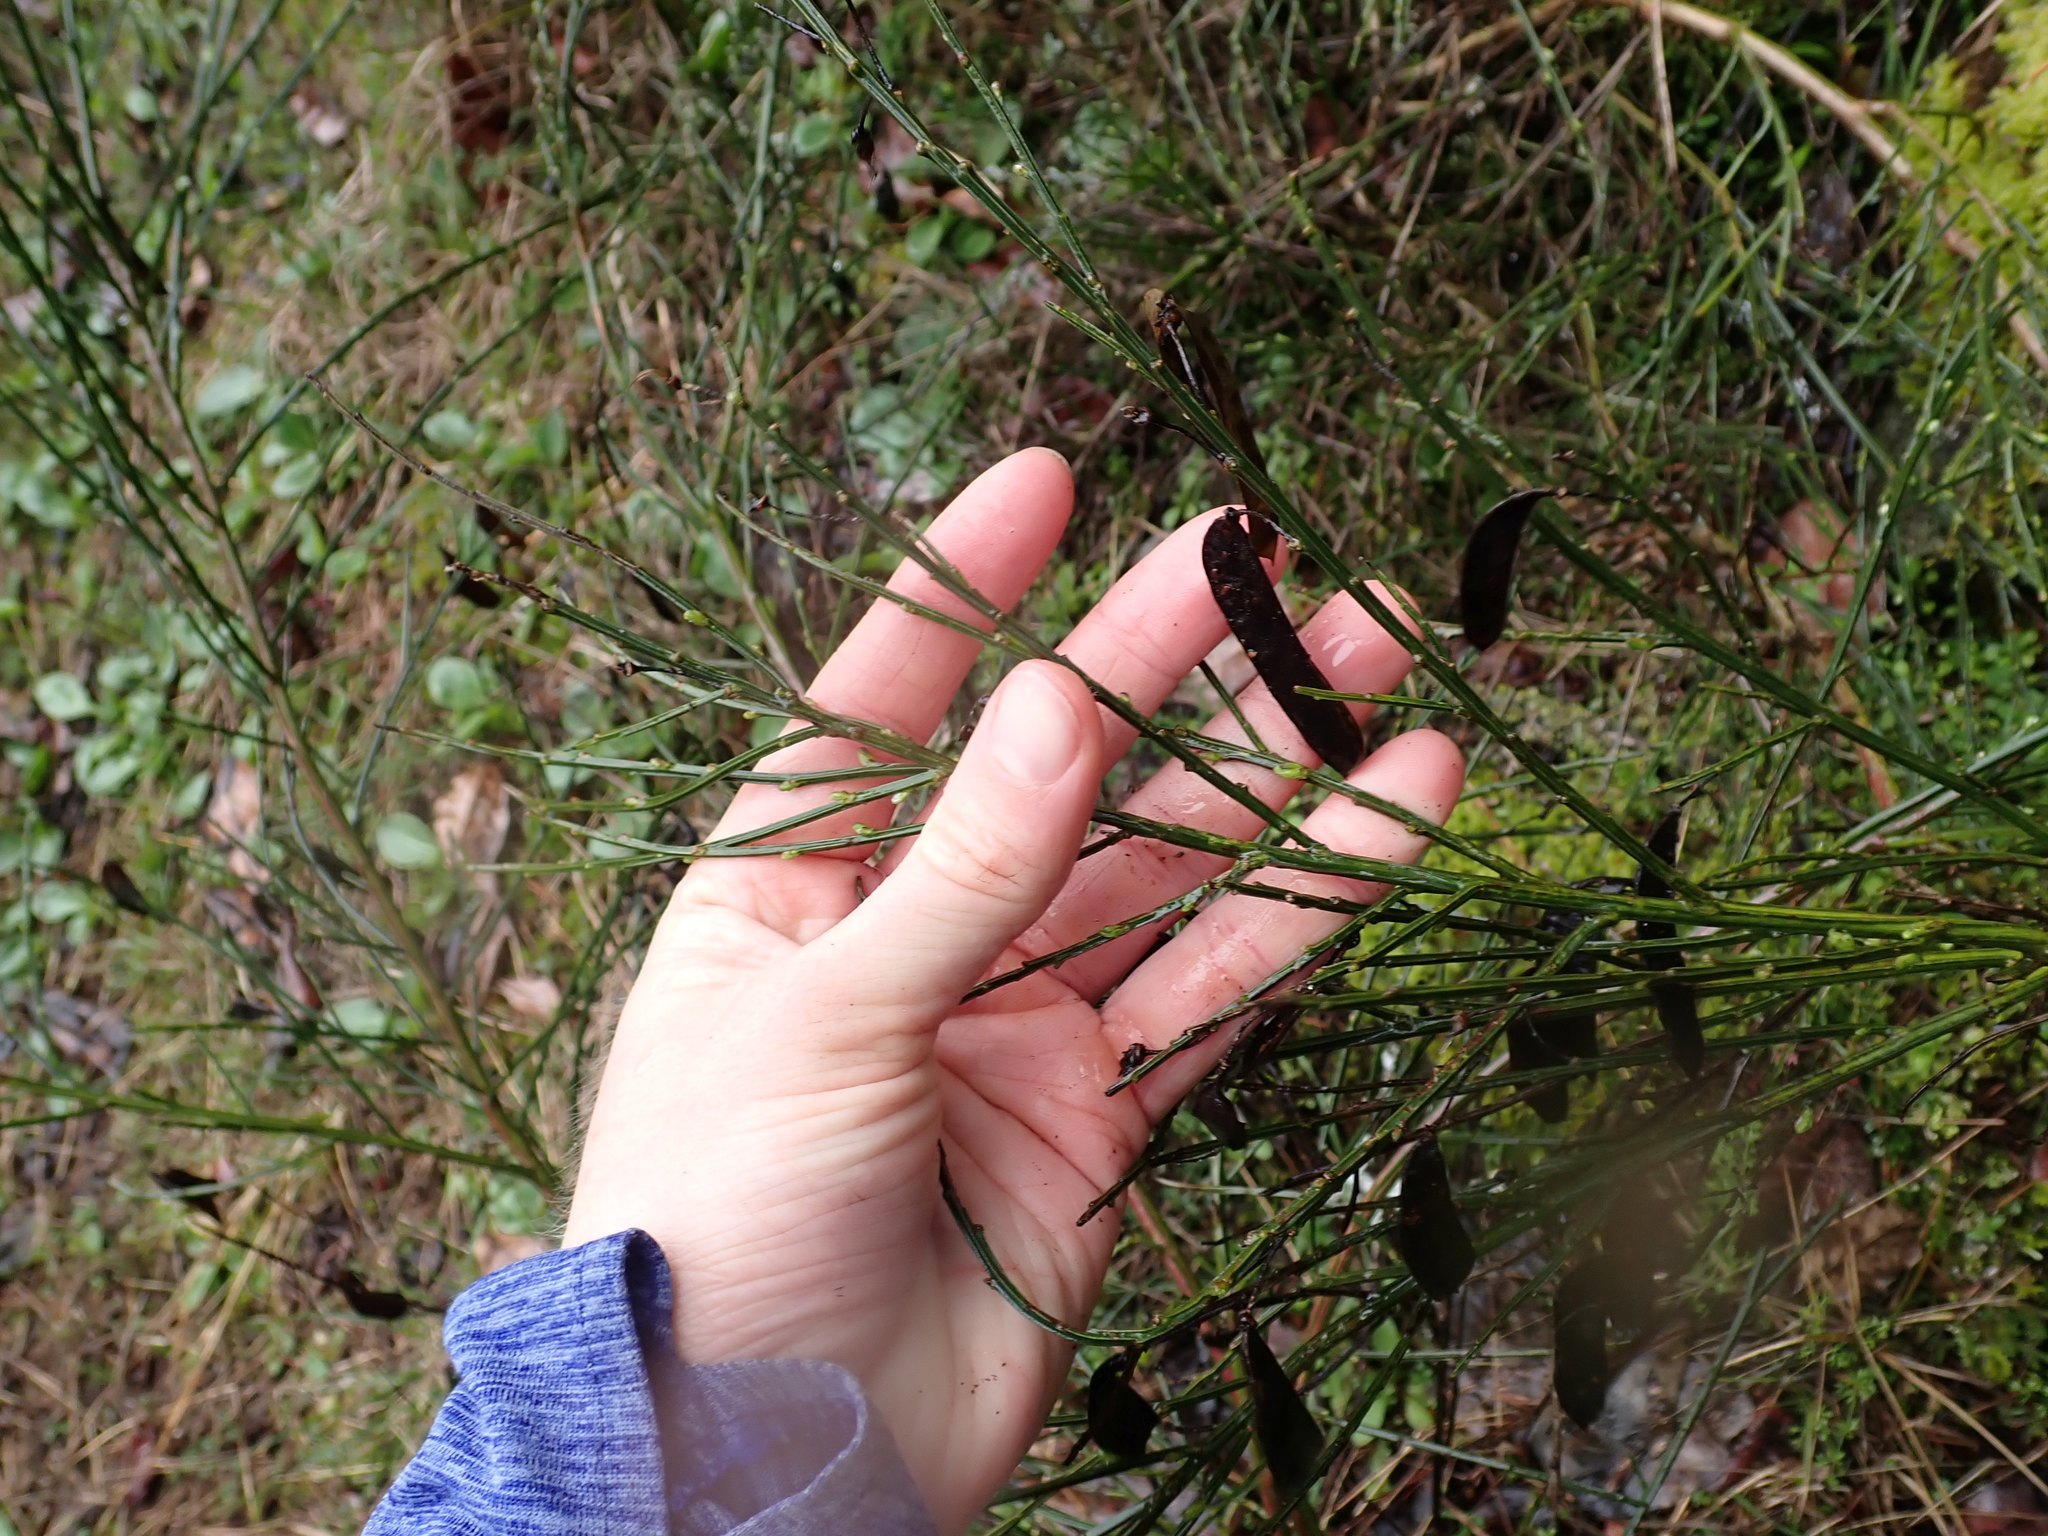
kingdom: Plantae
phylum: Tracheophyta
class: Magnoliopsida
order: Fabales
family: Fabaceae
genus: Cytisus
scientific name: Cytisus scoparius
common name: Scotch broom
